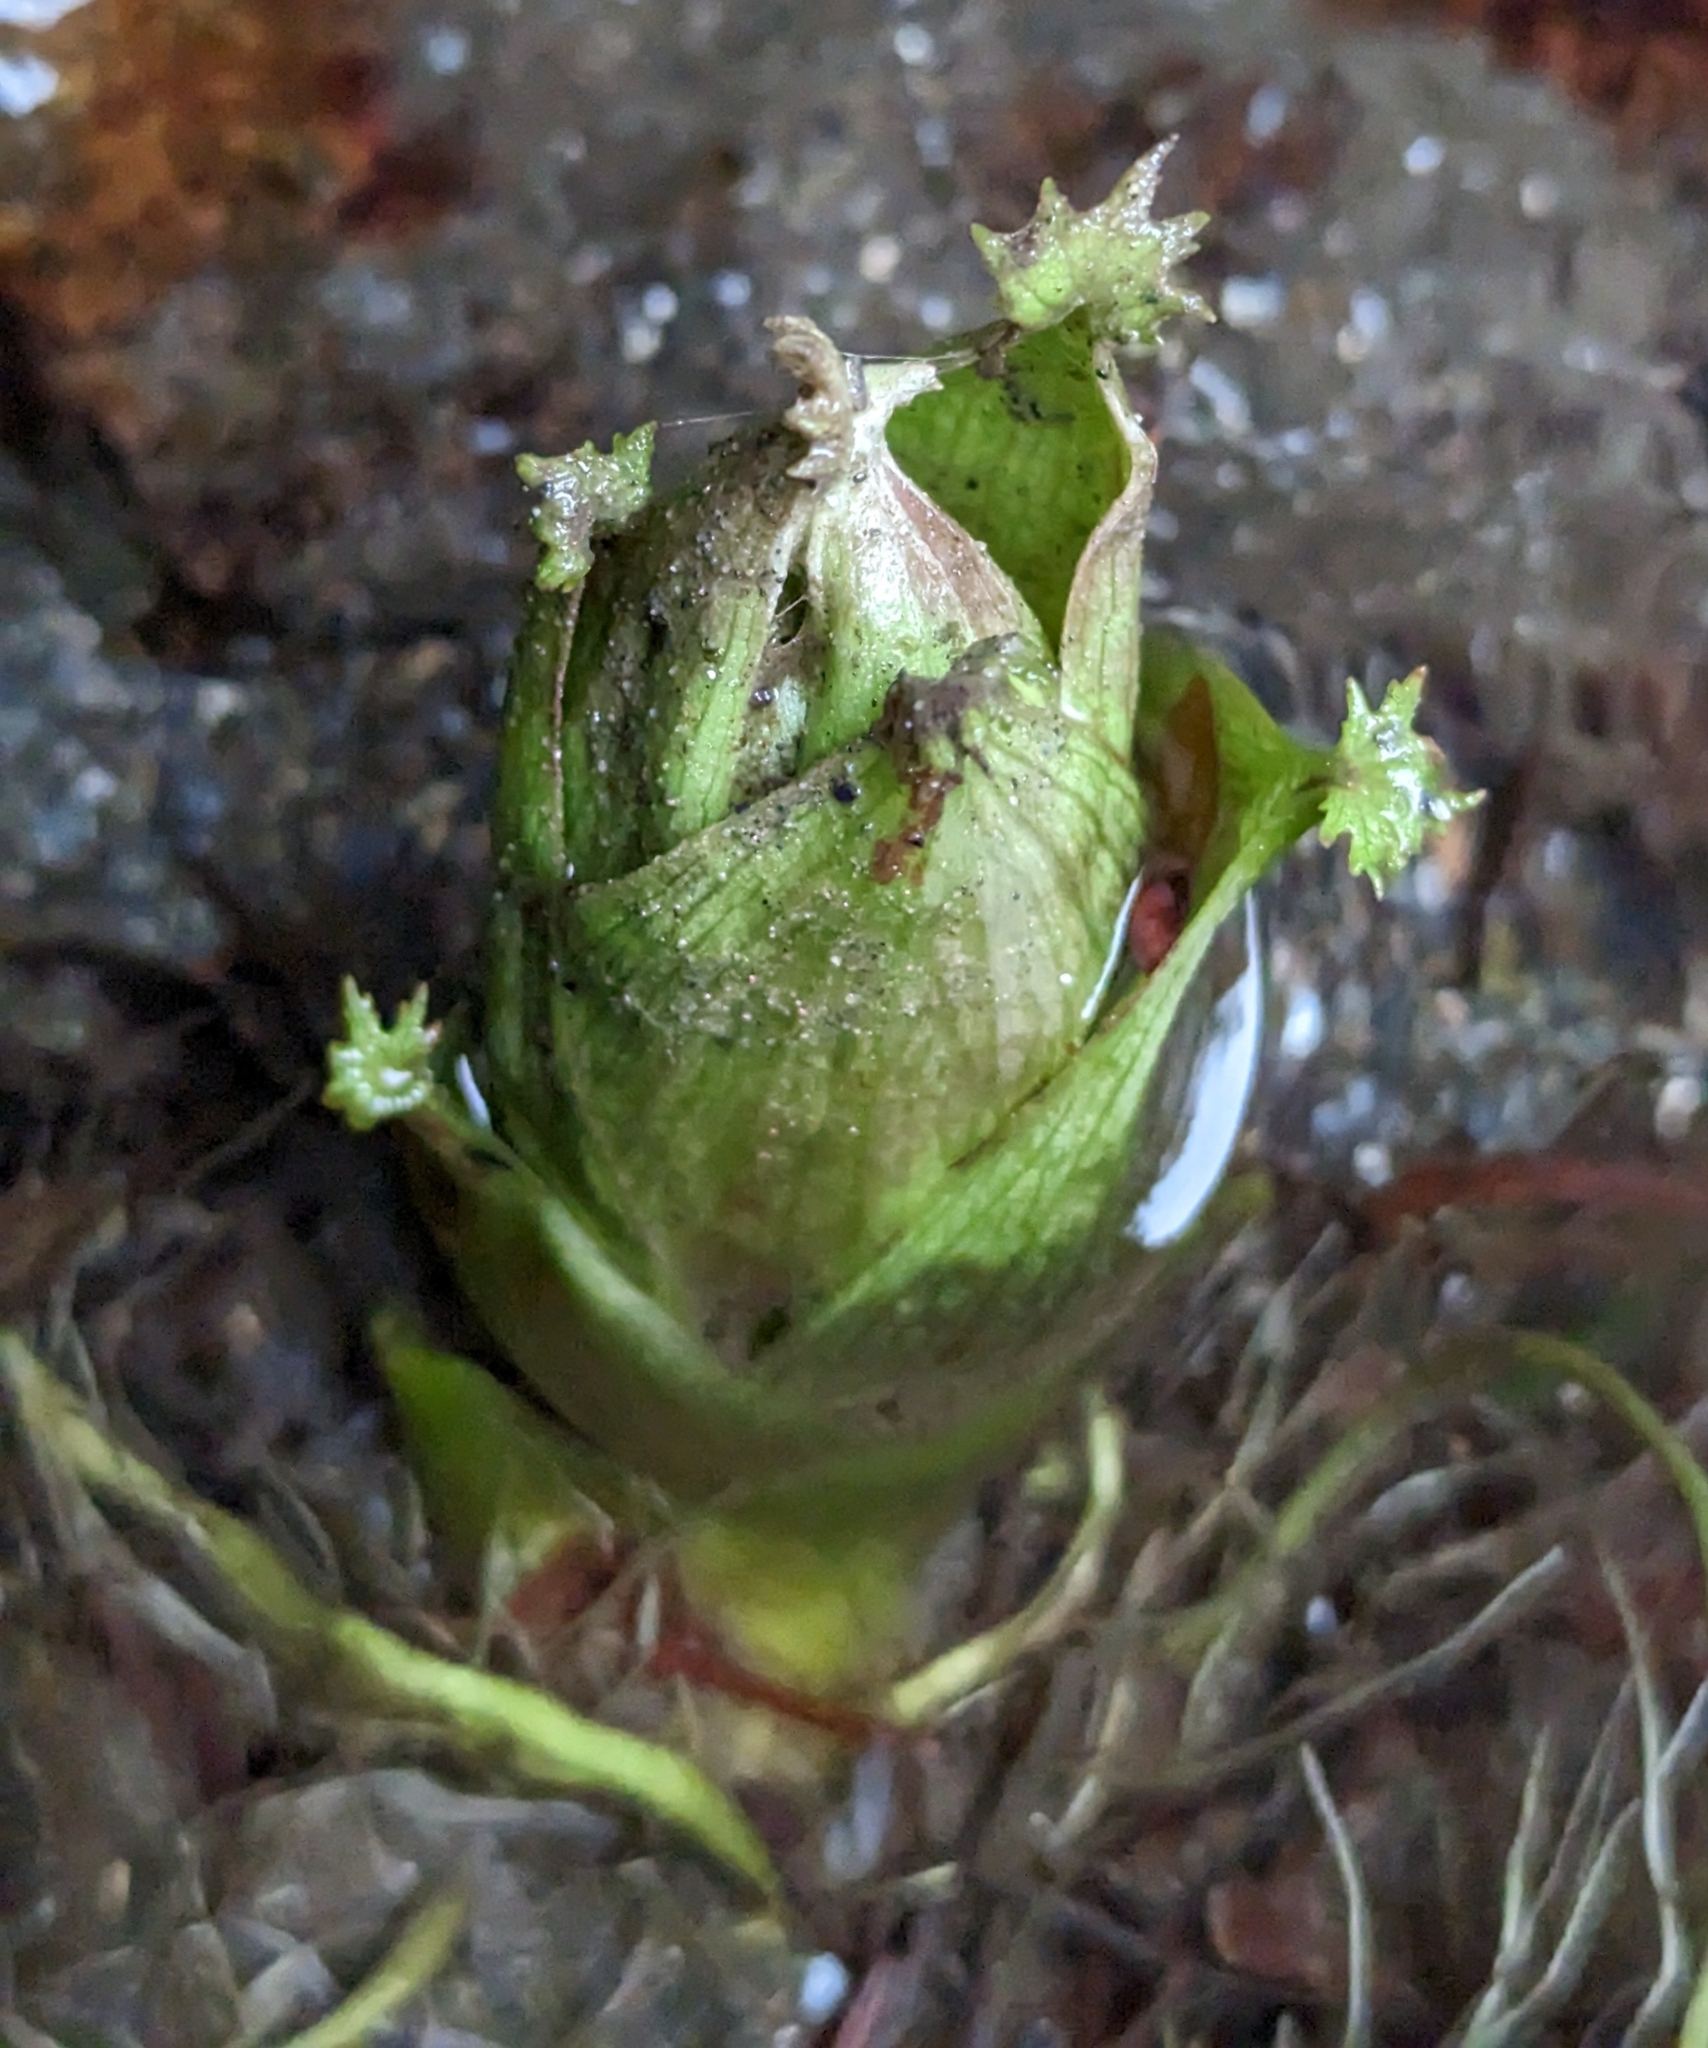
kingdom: Plantae
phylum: Tracheophyta
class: Magnoliopsida
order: Asterales
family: Asteraceae
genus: Petasites
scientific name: Petasites frigidus
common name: Arctic butterbur
